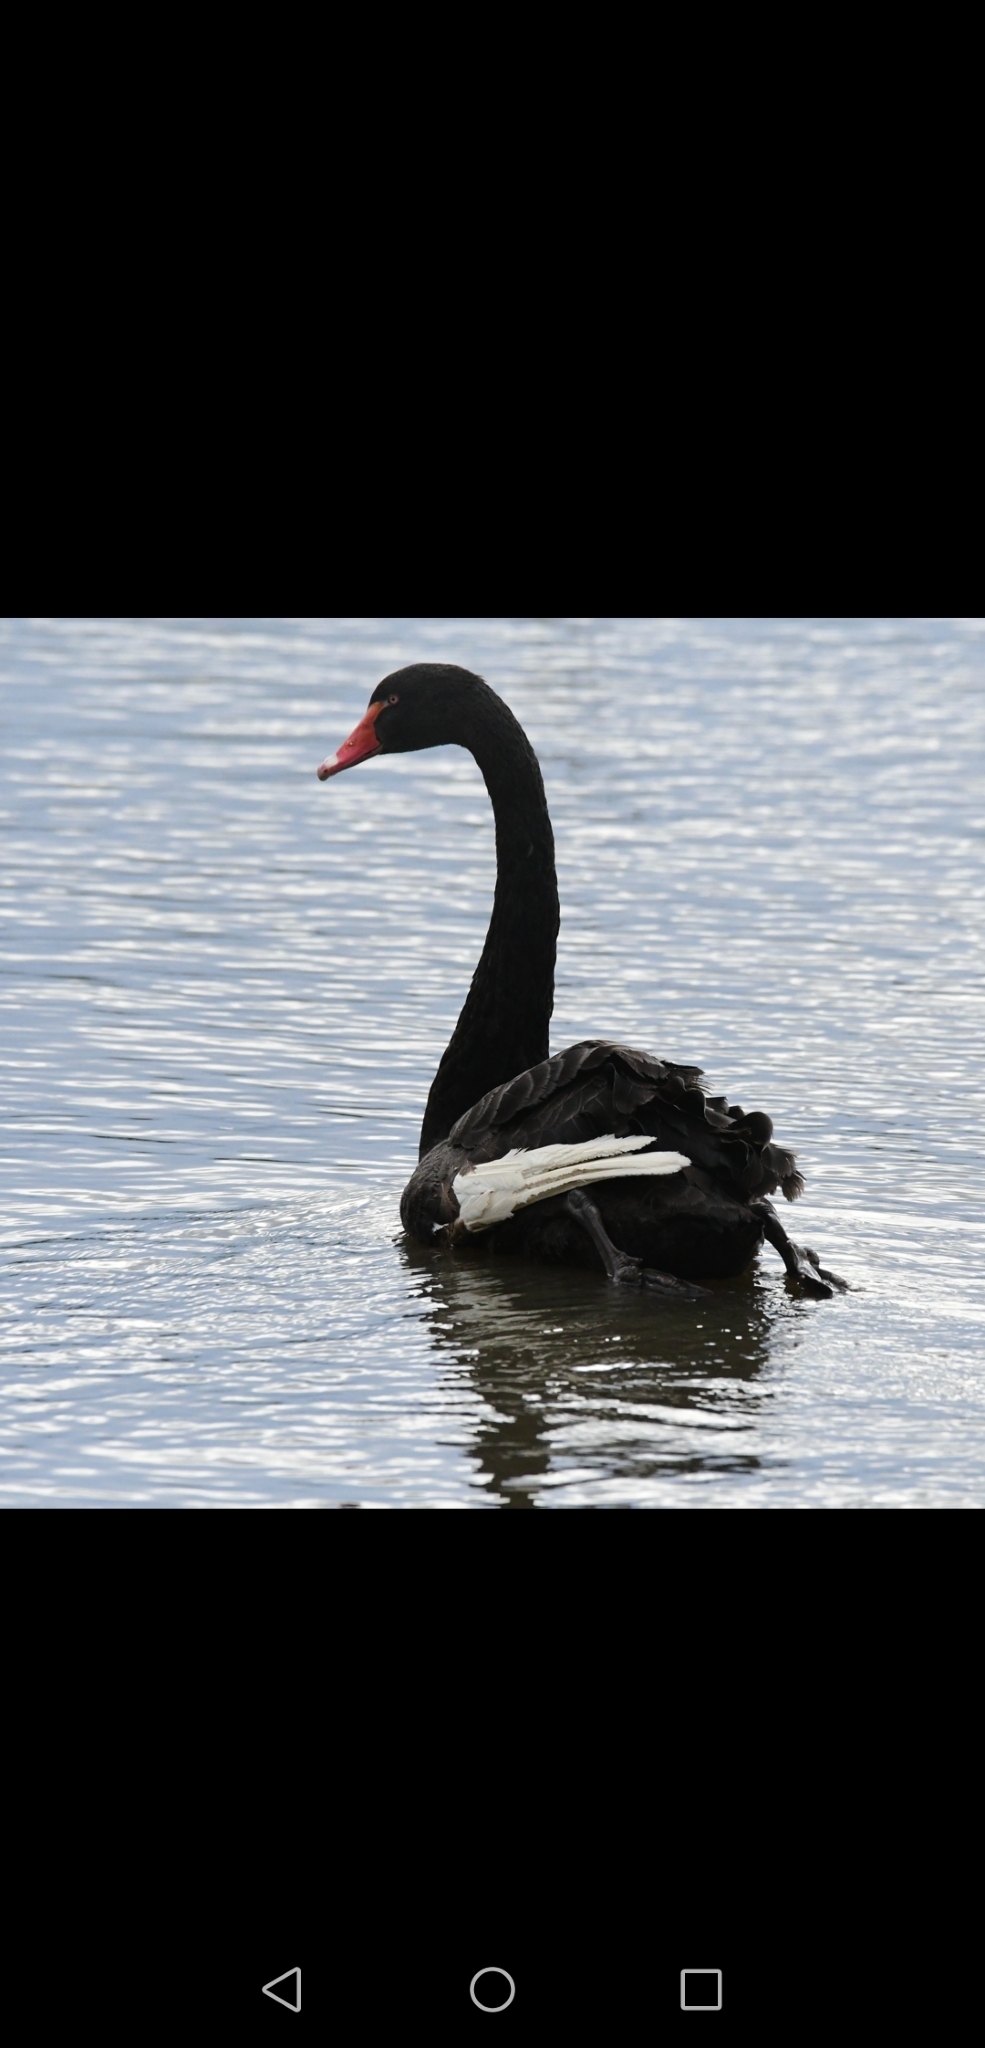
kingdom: Animalia
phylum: Chordata
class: Aves
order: Anseriformes
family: Anatidae
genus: Cygnus
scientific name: Cygnus atratus
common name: Black swan
